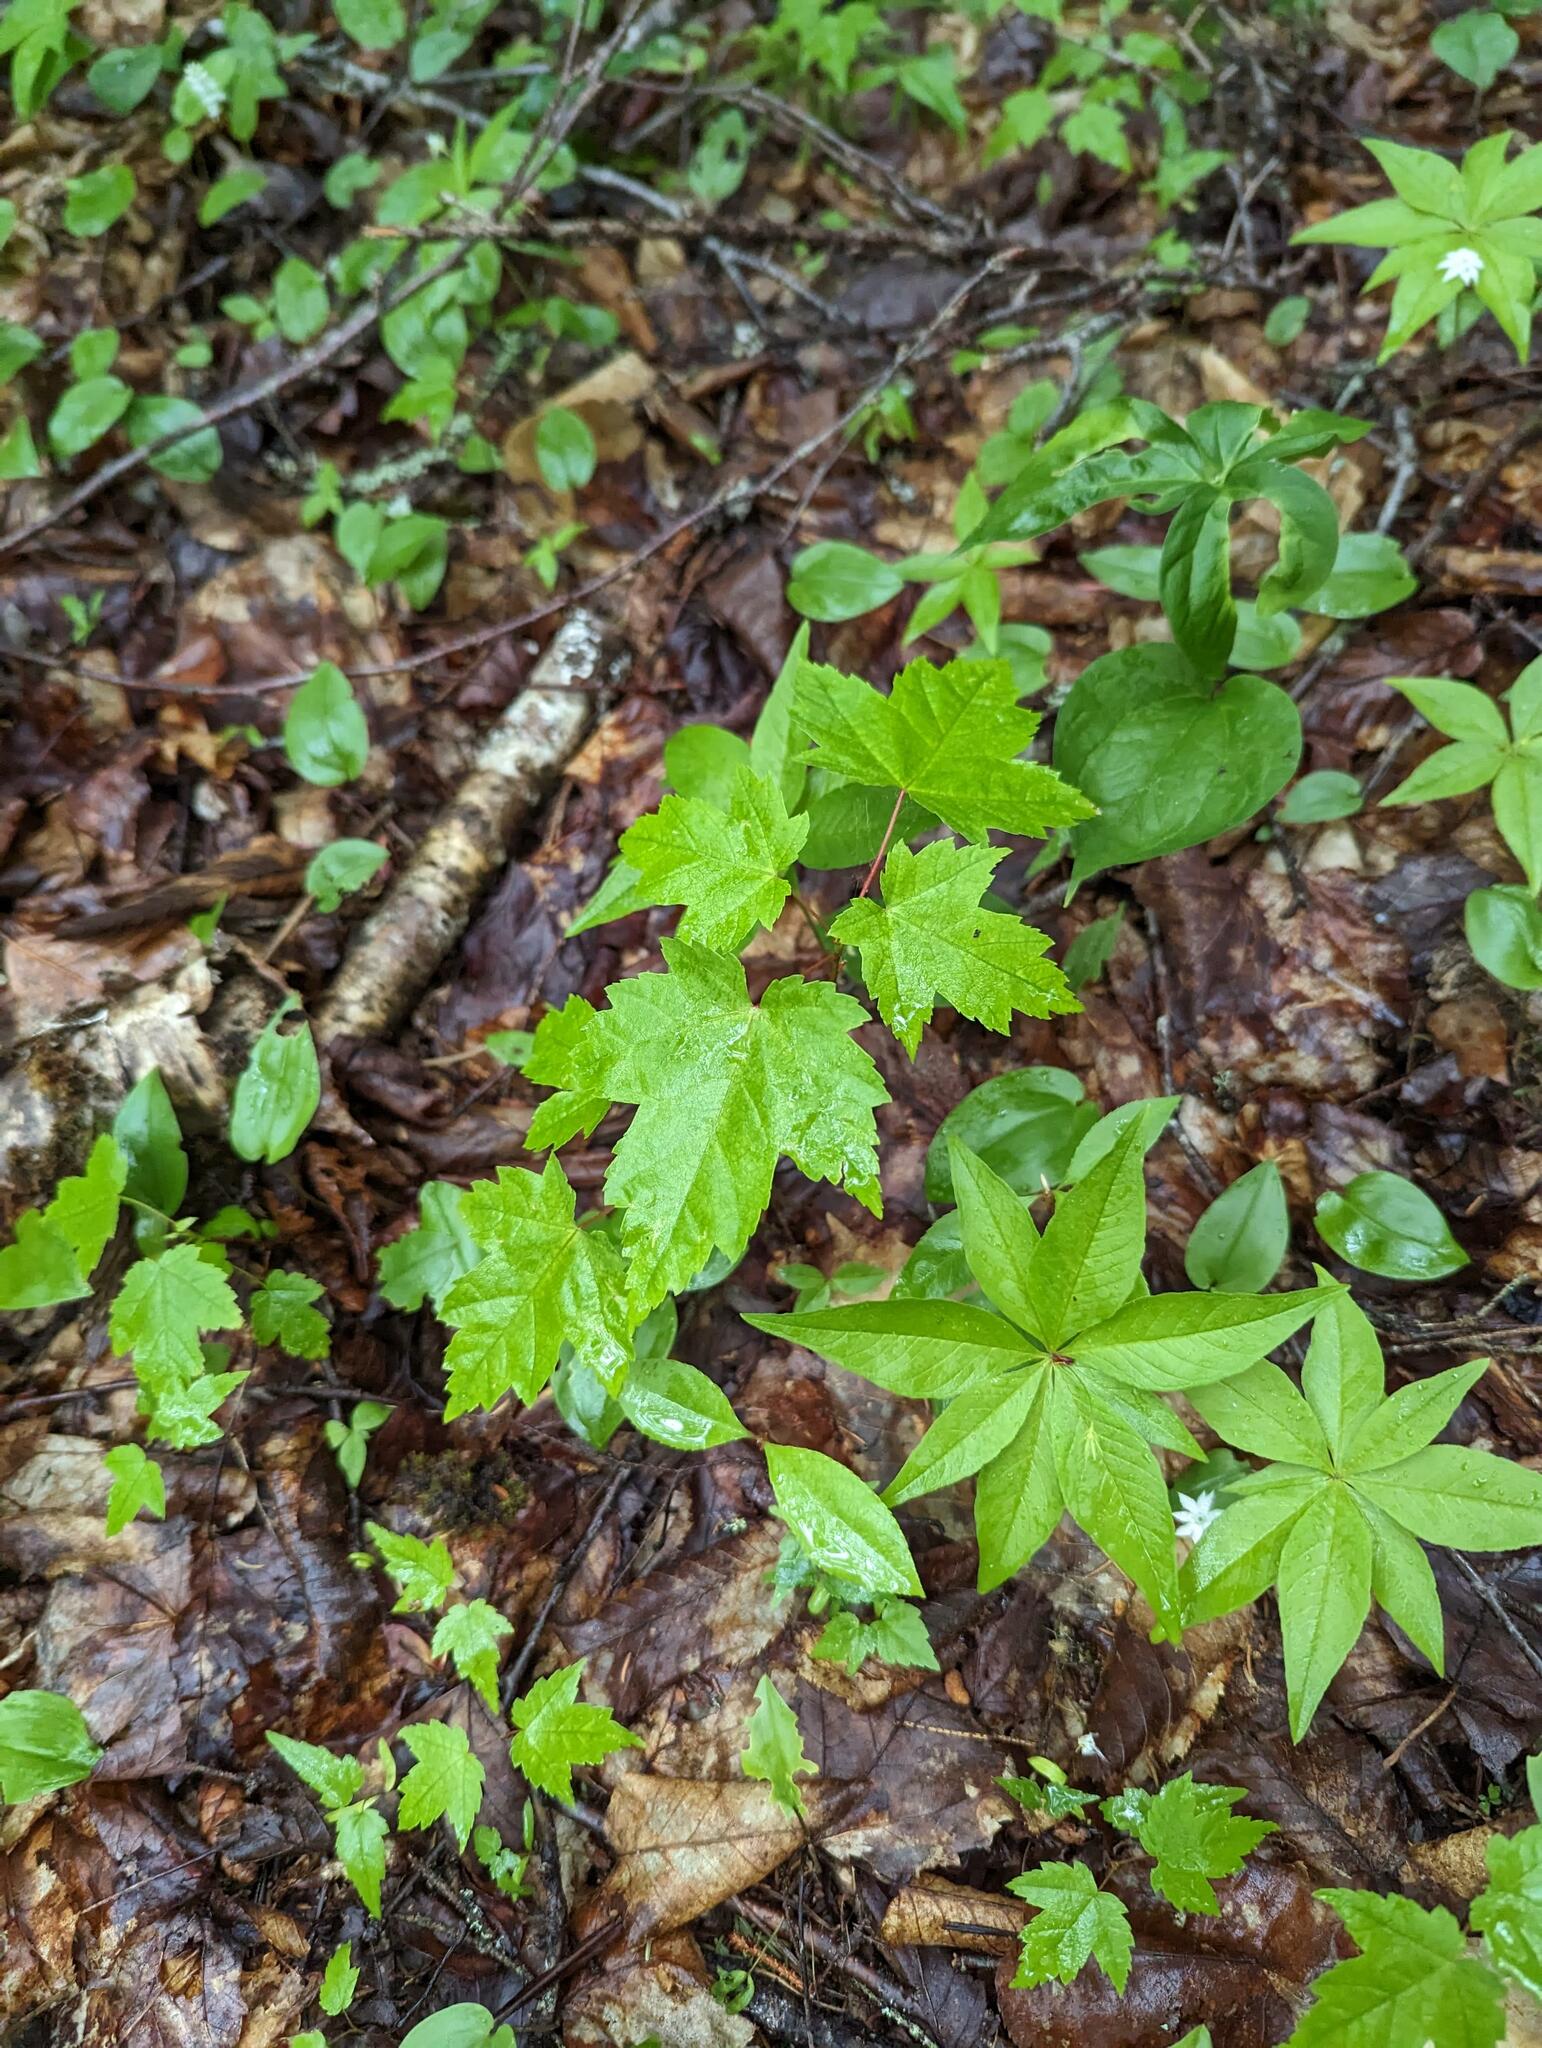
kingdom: Plantae
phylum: Tracheophyta
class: Magnoliopsida
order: Sapindales
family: Sapindaceae
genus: Acer
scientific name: Acer rubrum
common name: Red maple
